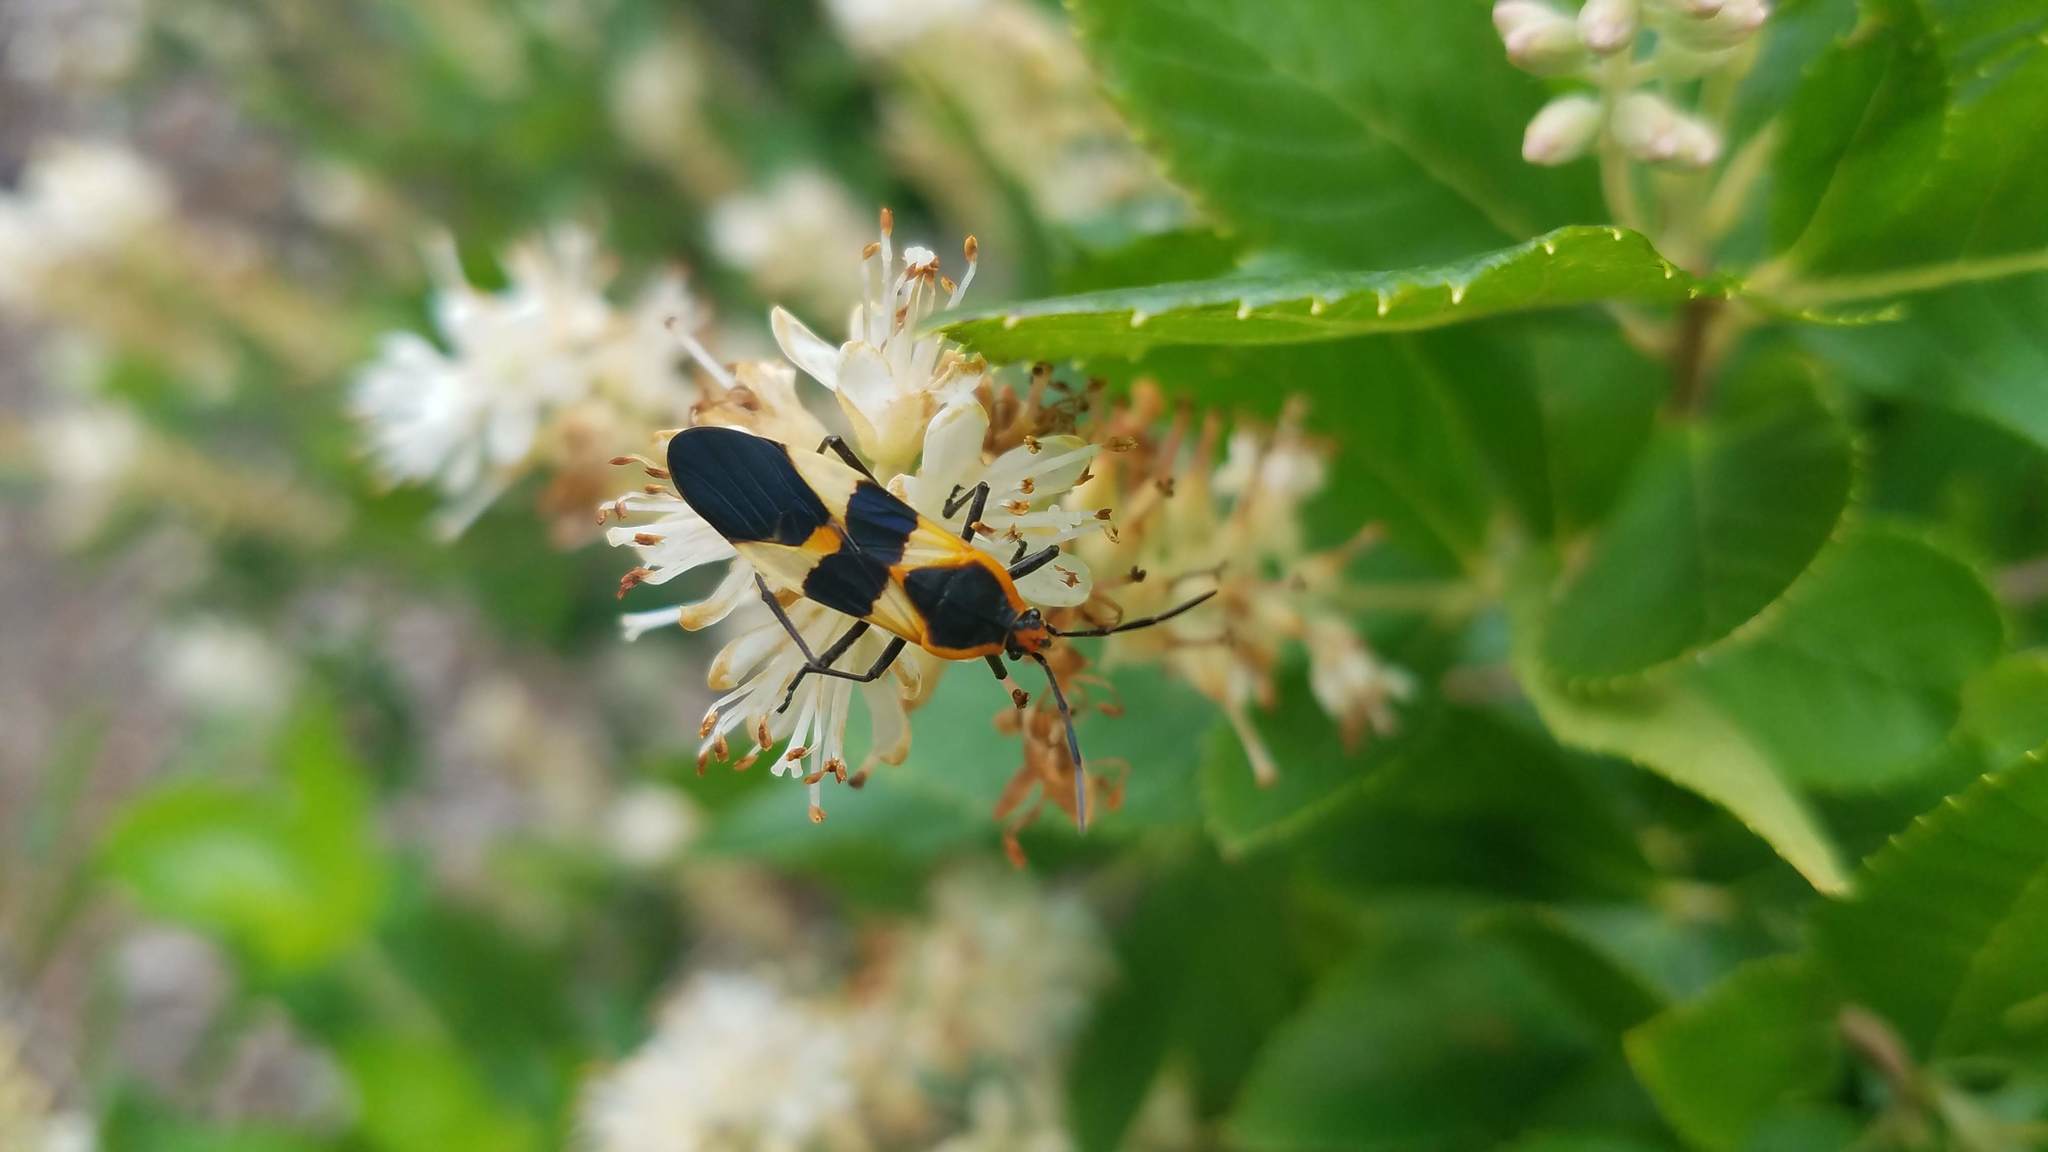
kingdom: Animalia
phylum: Arthropoda
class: Insecta
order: Hemiptera
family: Lygaeidae
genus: Oncopeltus
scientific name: Oncopeltus fasciatus
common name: Large milkweed bug
